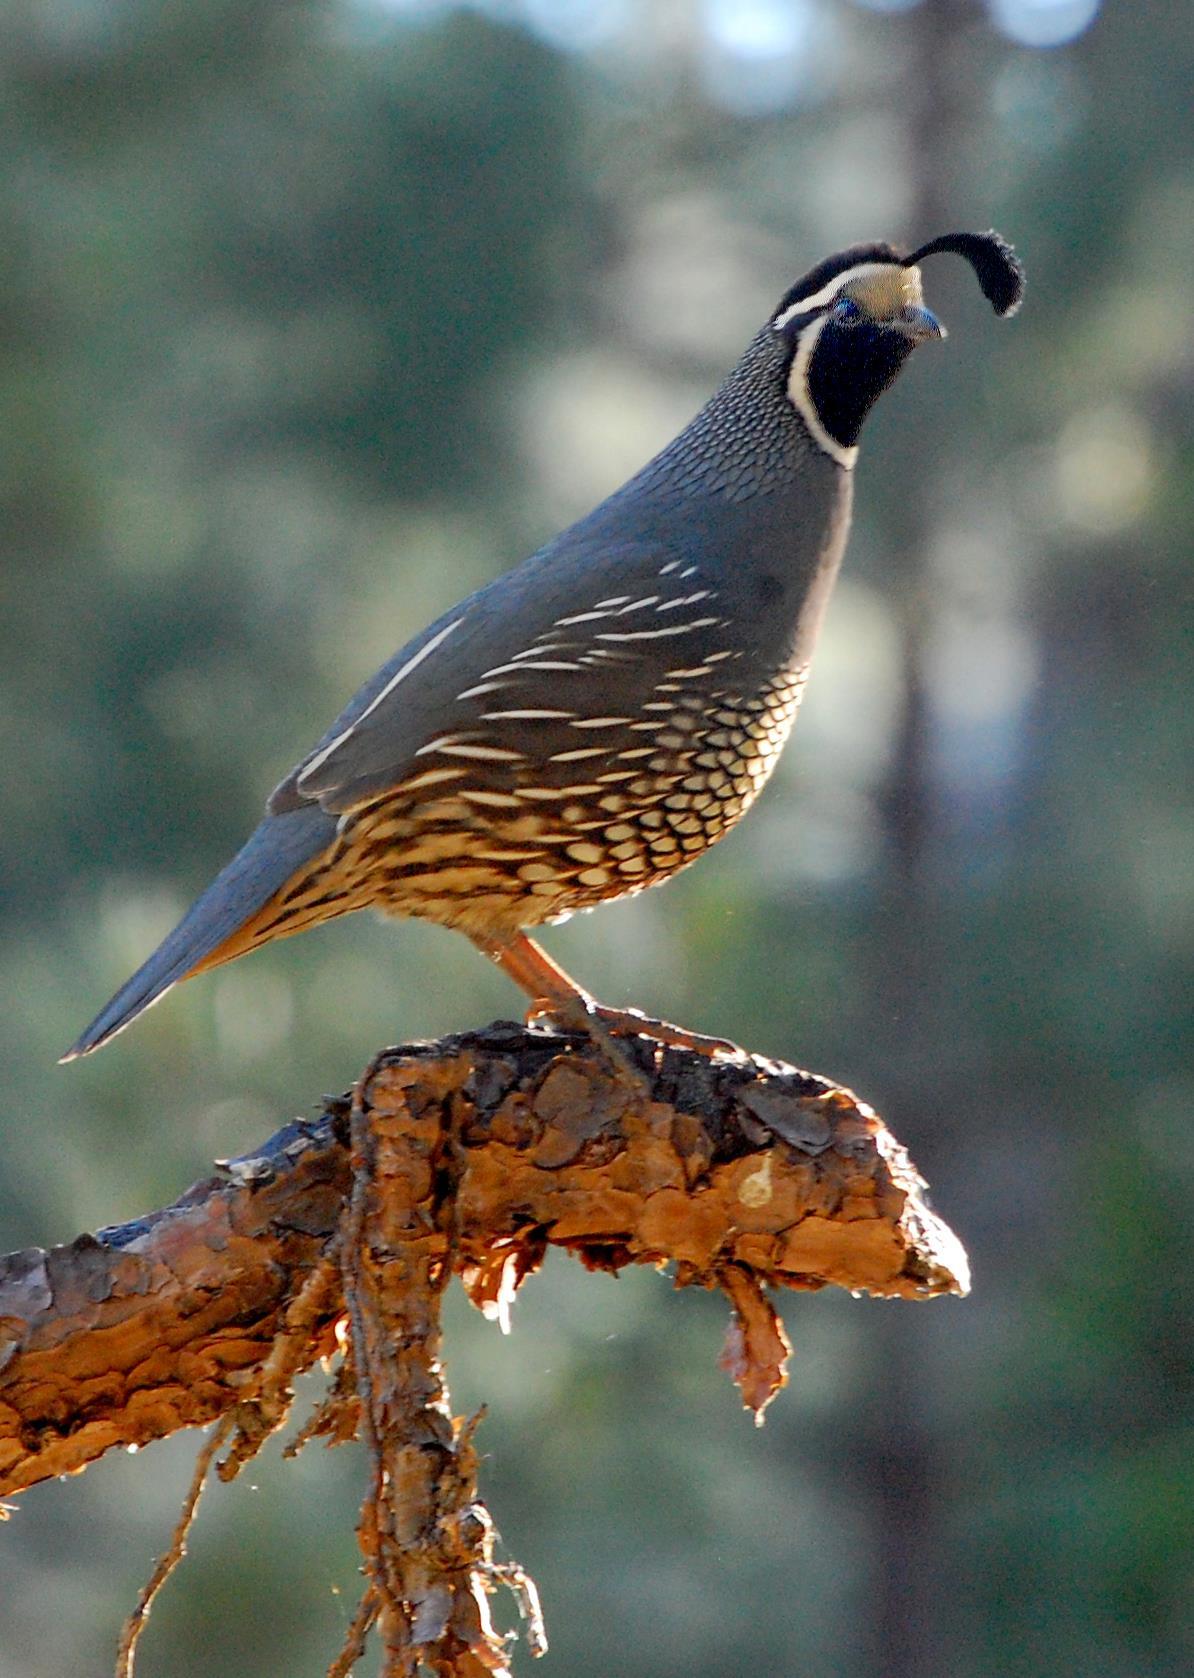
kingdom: Animalia
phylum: Chordata
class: Aves
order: Galliformes
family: Odontophoridae
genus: Callipepla
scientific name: Callipepla californica
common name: California quail
